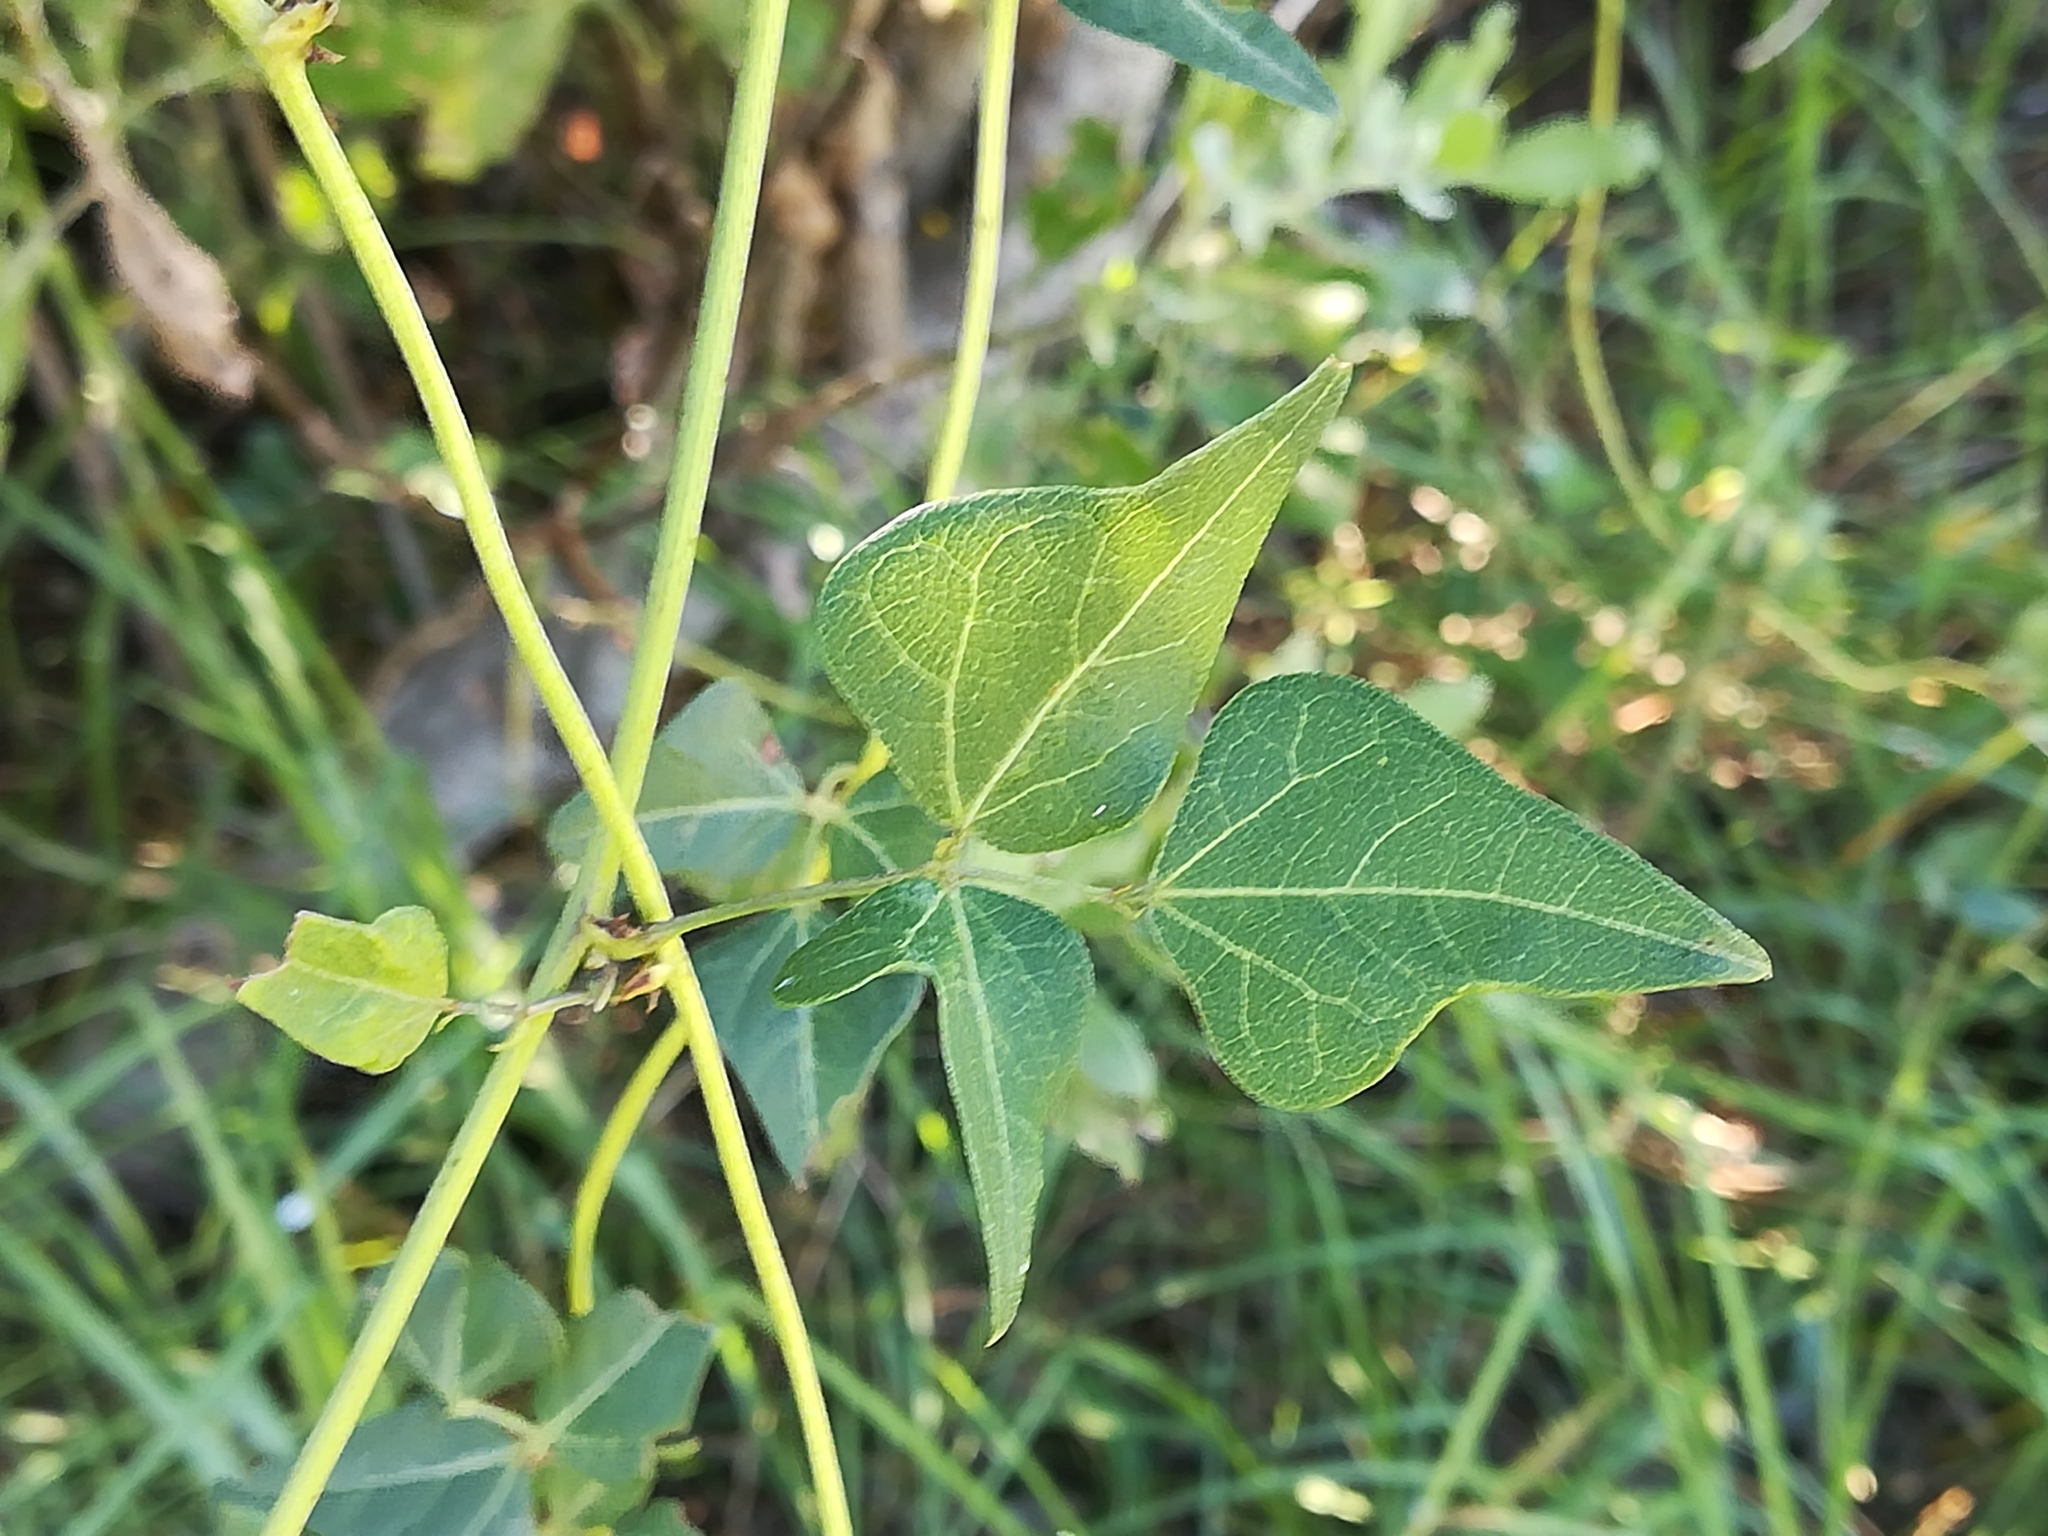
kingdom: Plantae
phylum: Tracheophyta
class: Magnoliopsida
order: Fabales
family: Fabaceae
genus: Dipogon
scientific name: Dipogon lignosus
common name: Okie bean
